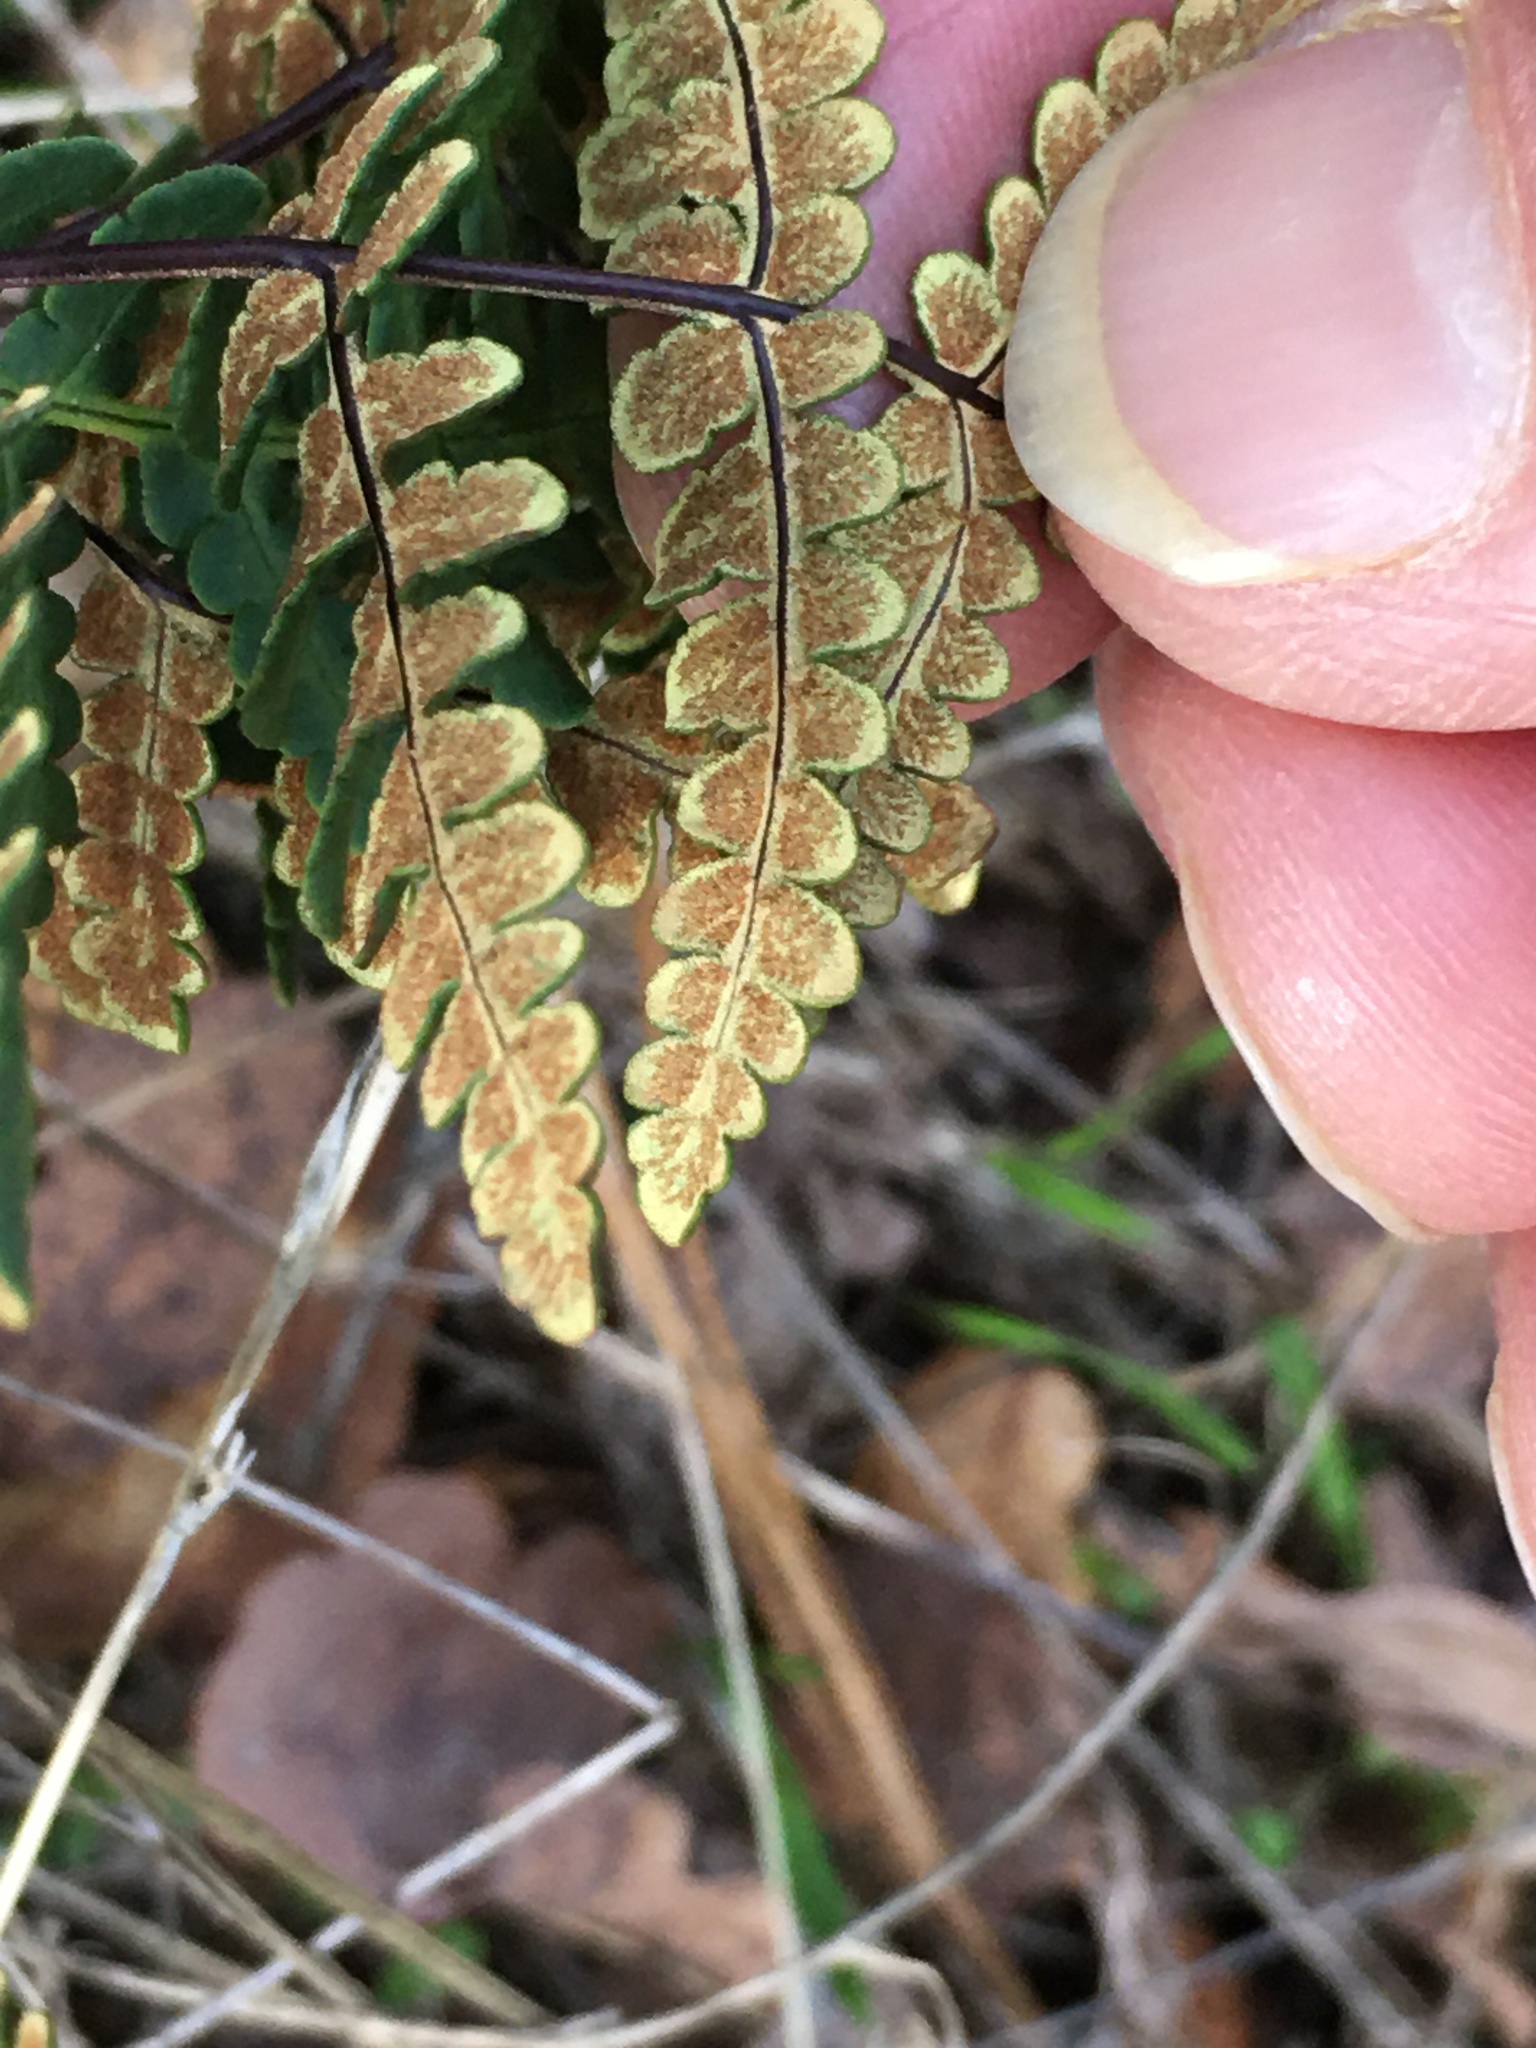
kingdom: Plantae
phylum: Tracheophyta
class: Polypodiopsida
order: Polypodiales
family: Pteridaceae
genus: Pentagramma
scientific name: Pentagramma triangularis
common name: Gold fern
